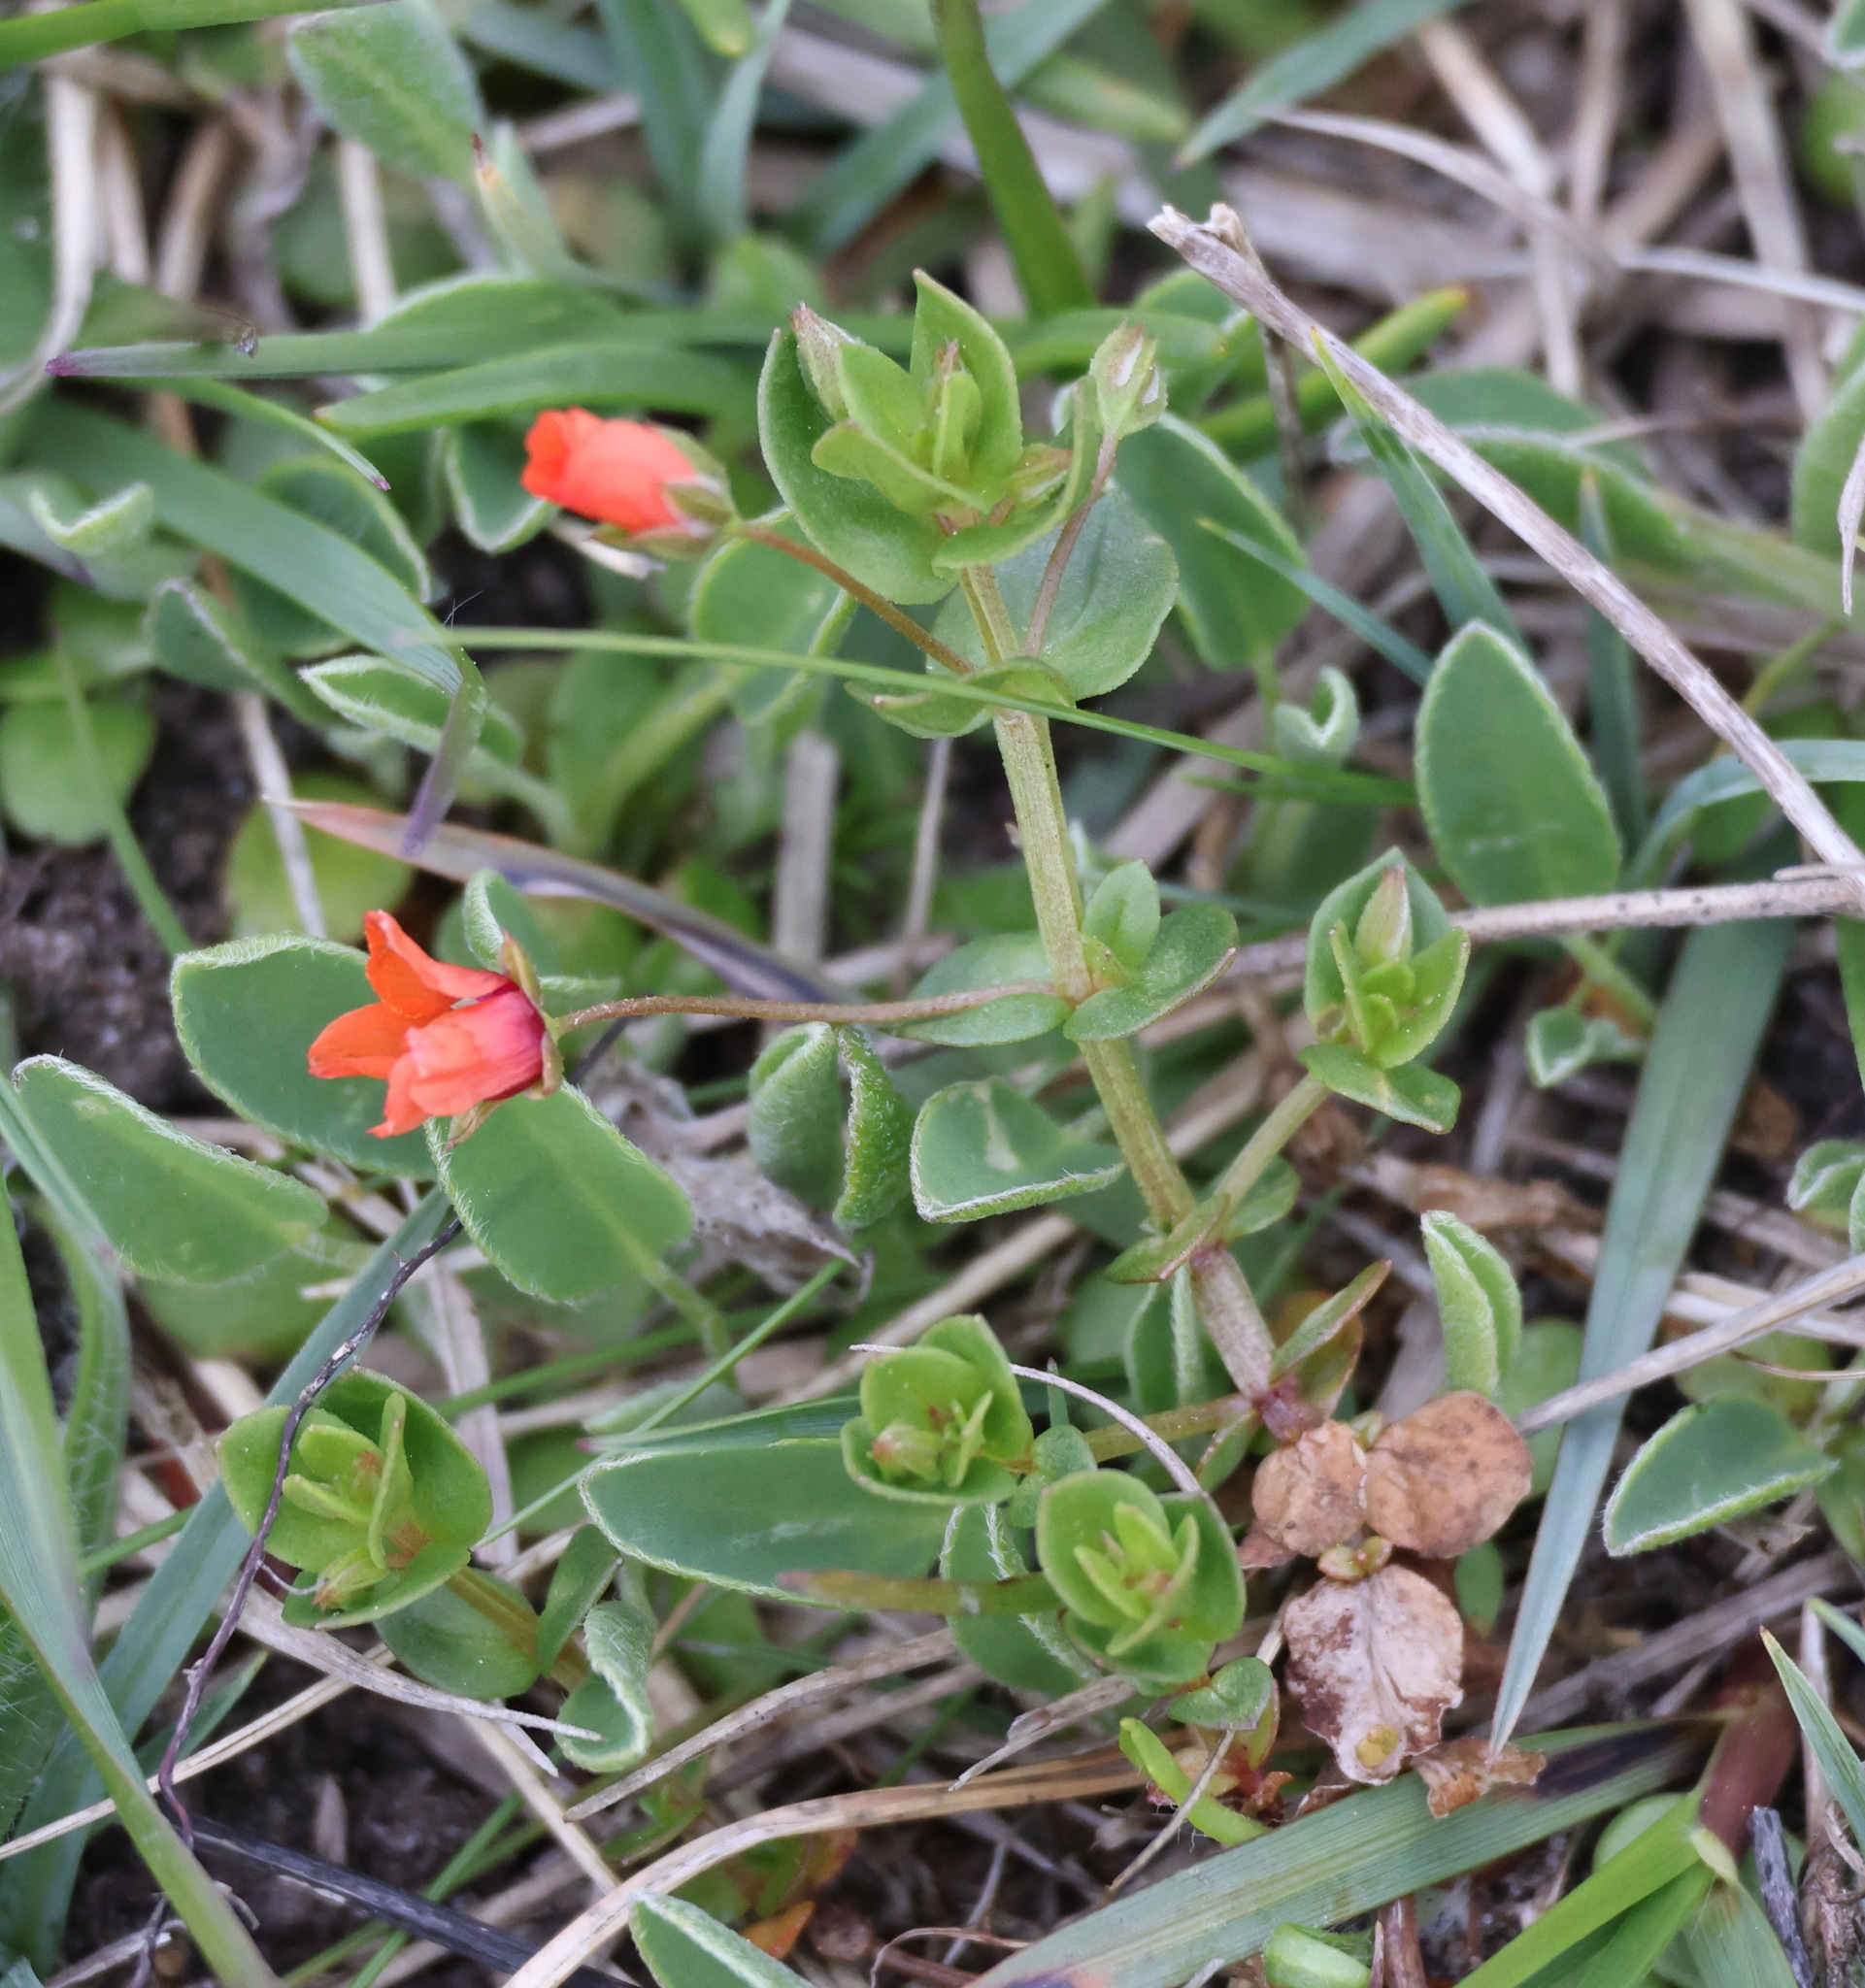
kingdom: Plantae
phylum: Tracheophyta
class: Magnoliopsida
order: Ericales
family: Primulaceae
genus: Lysimachia
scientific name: Lysimachia arvensis
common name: Scarlet pimpernel
